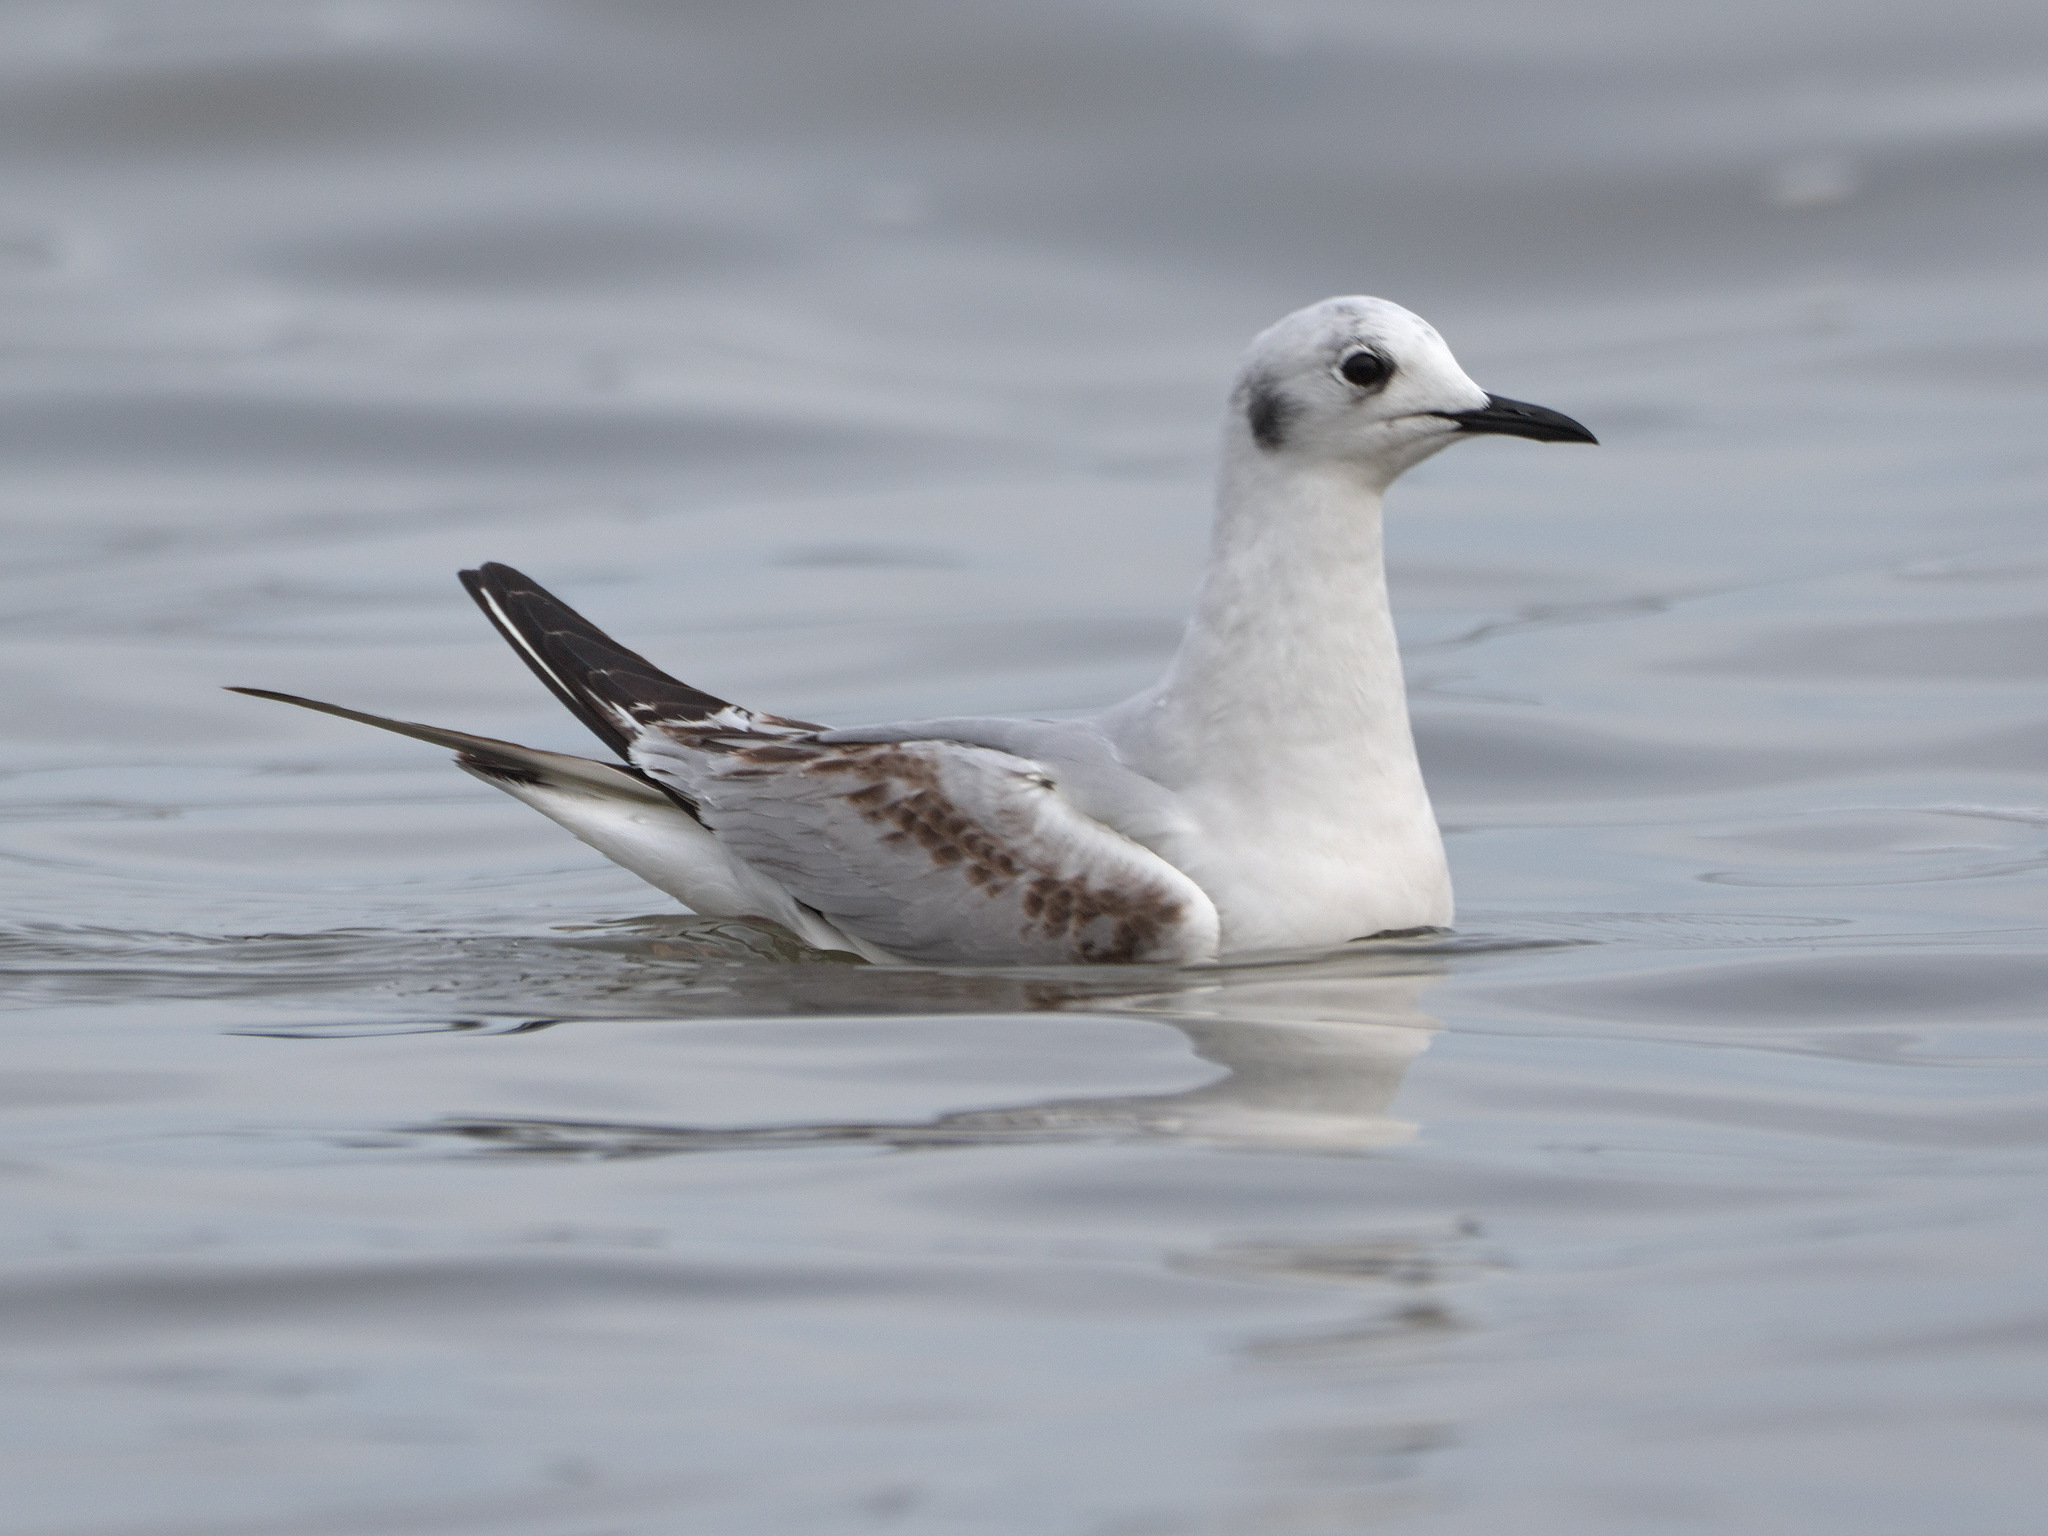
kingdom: Animalia
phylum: Chordata
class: Aves
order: Charadriiformes
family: Laridae
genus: Chroicocephalus
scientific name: Chroicocephalus philadelphia
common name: Bonaparte's gull
